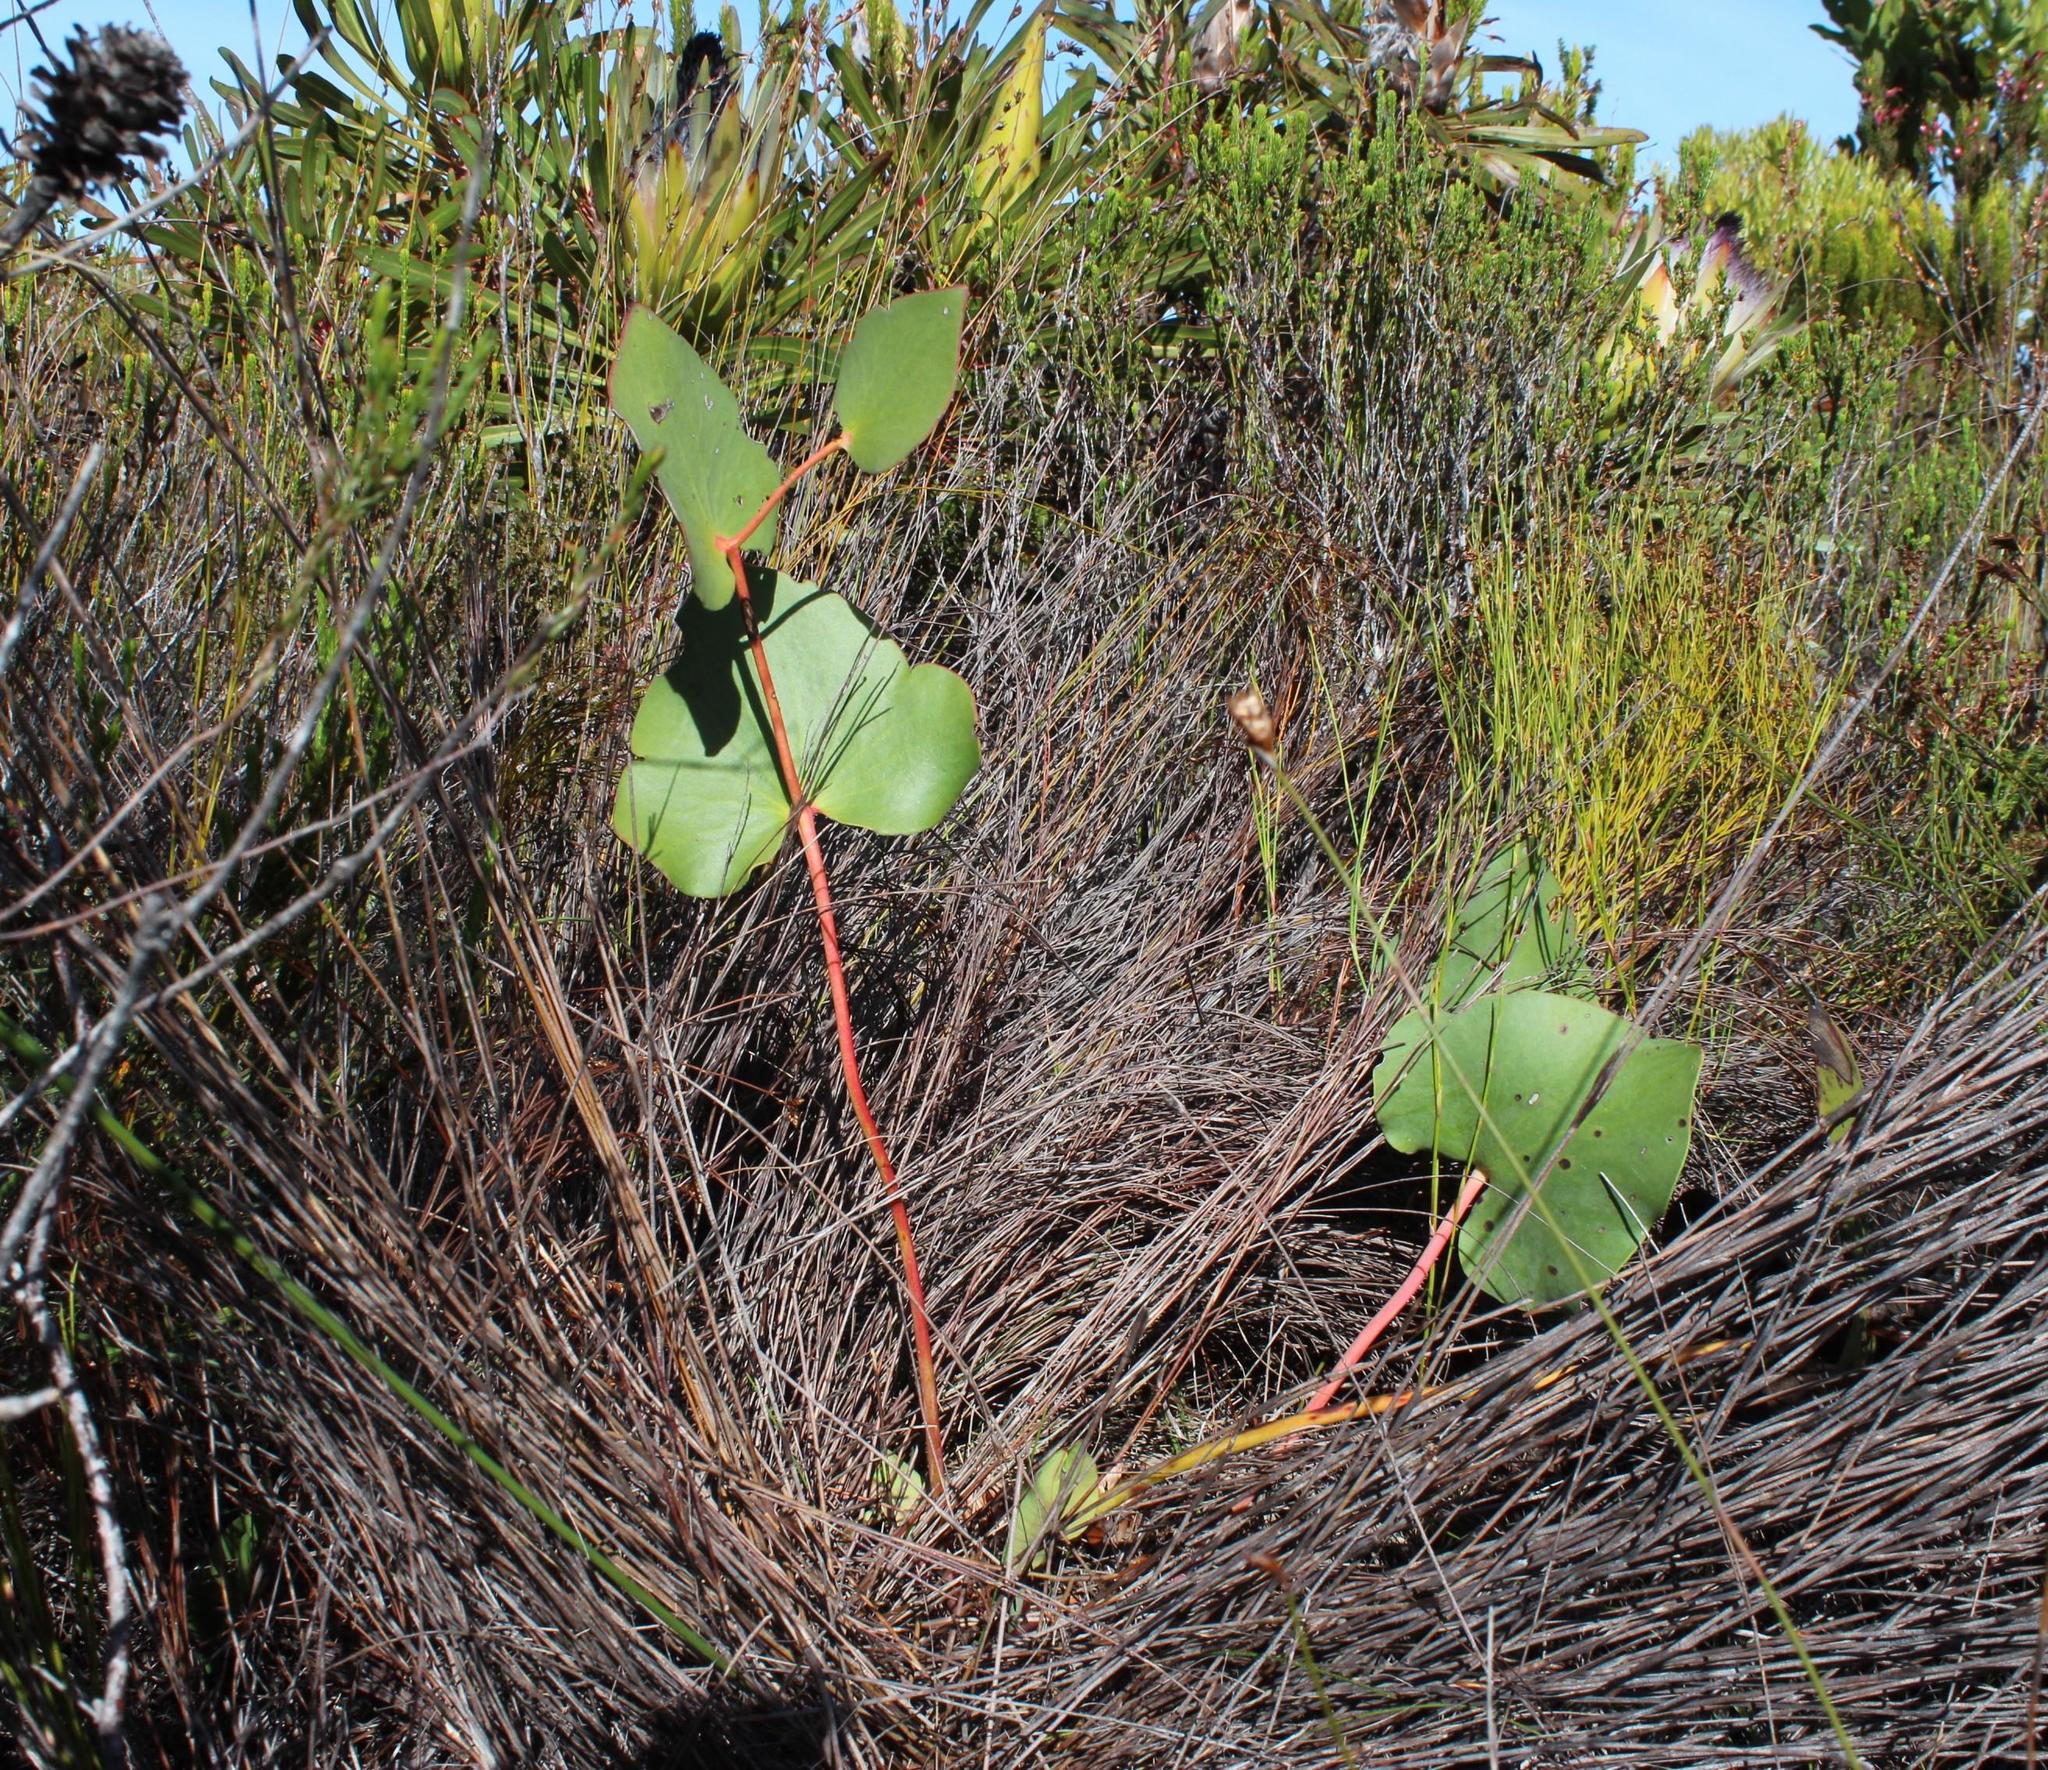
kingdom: Plantae
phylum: Tracheophyta
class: Magnoliopsida
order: Proteales
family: Proteaceae
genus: Protea
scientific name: Protea cordata
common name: Heart-leaf sugarbush
